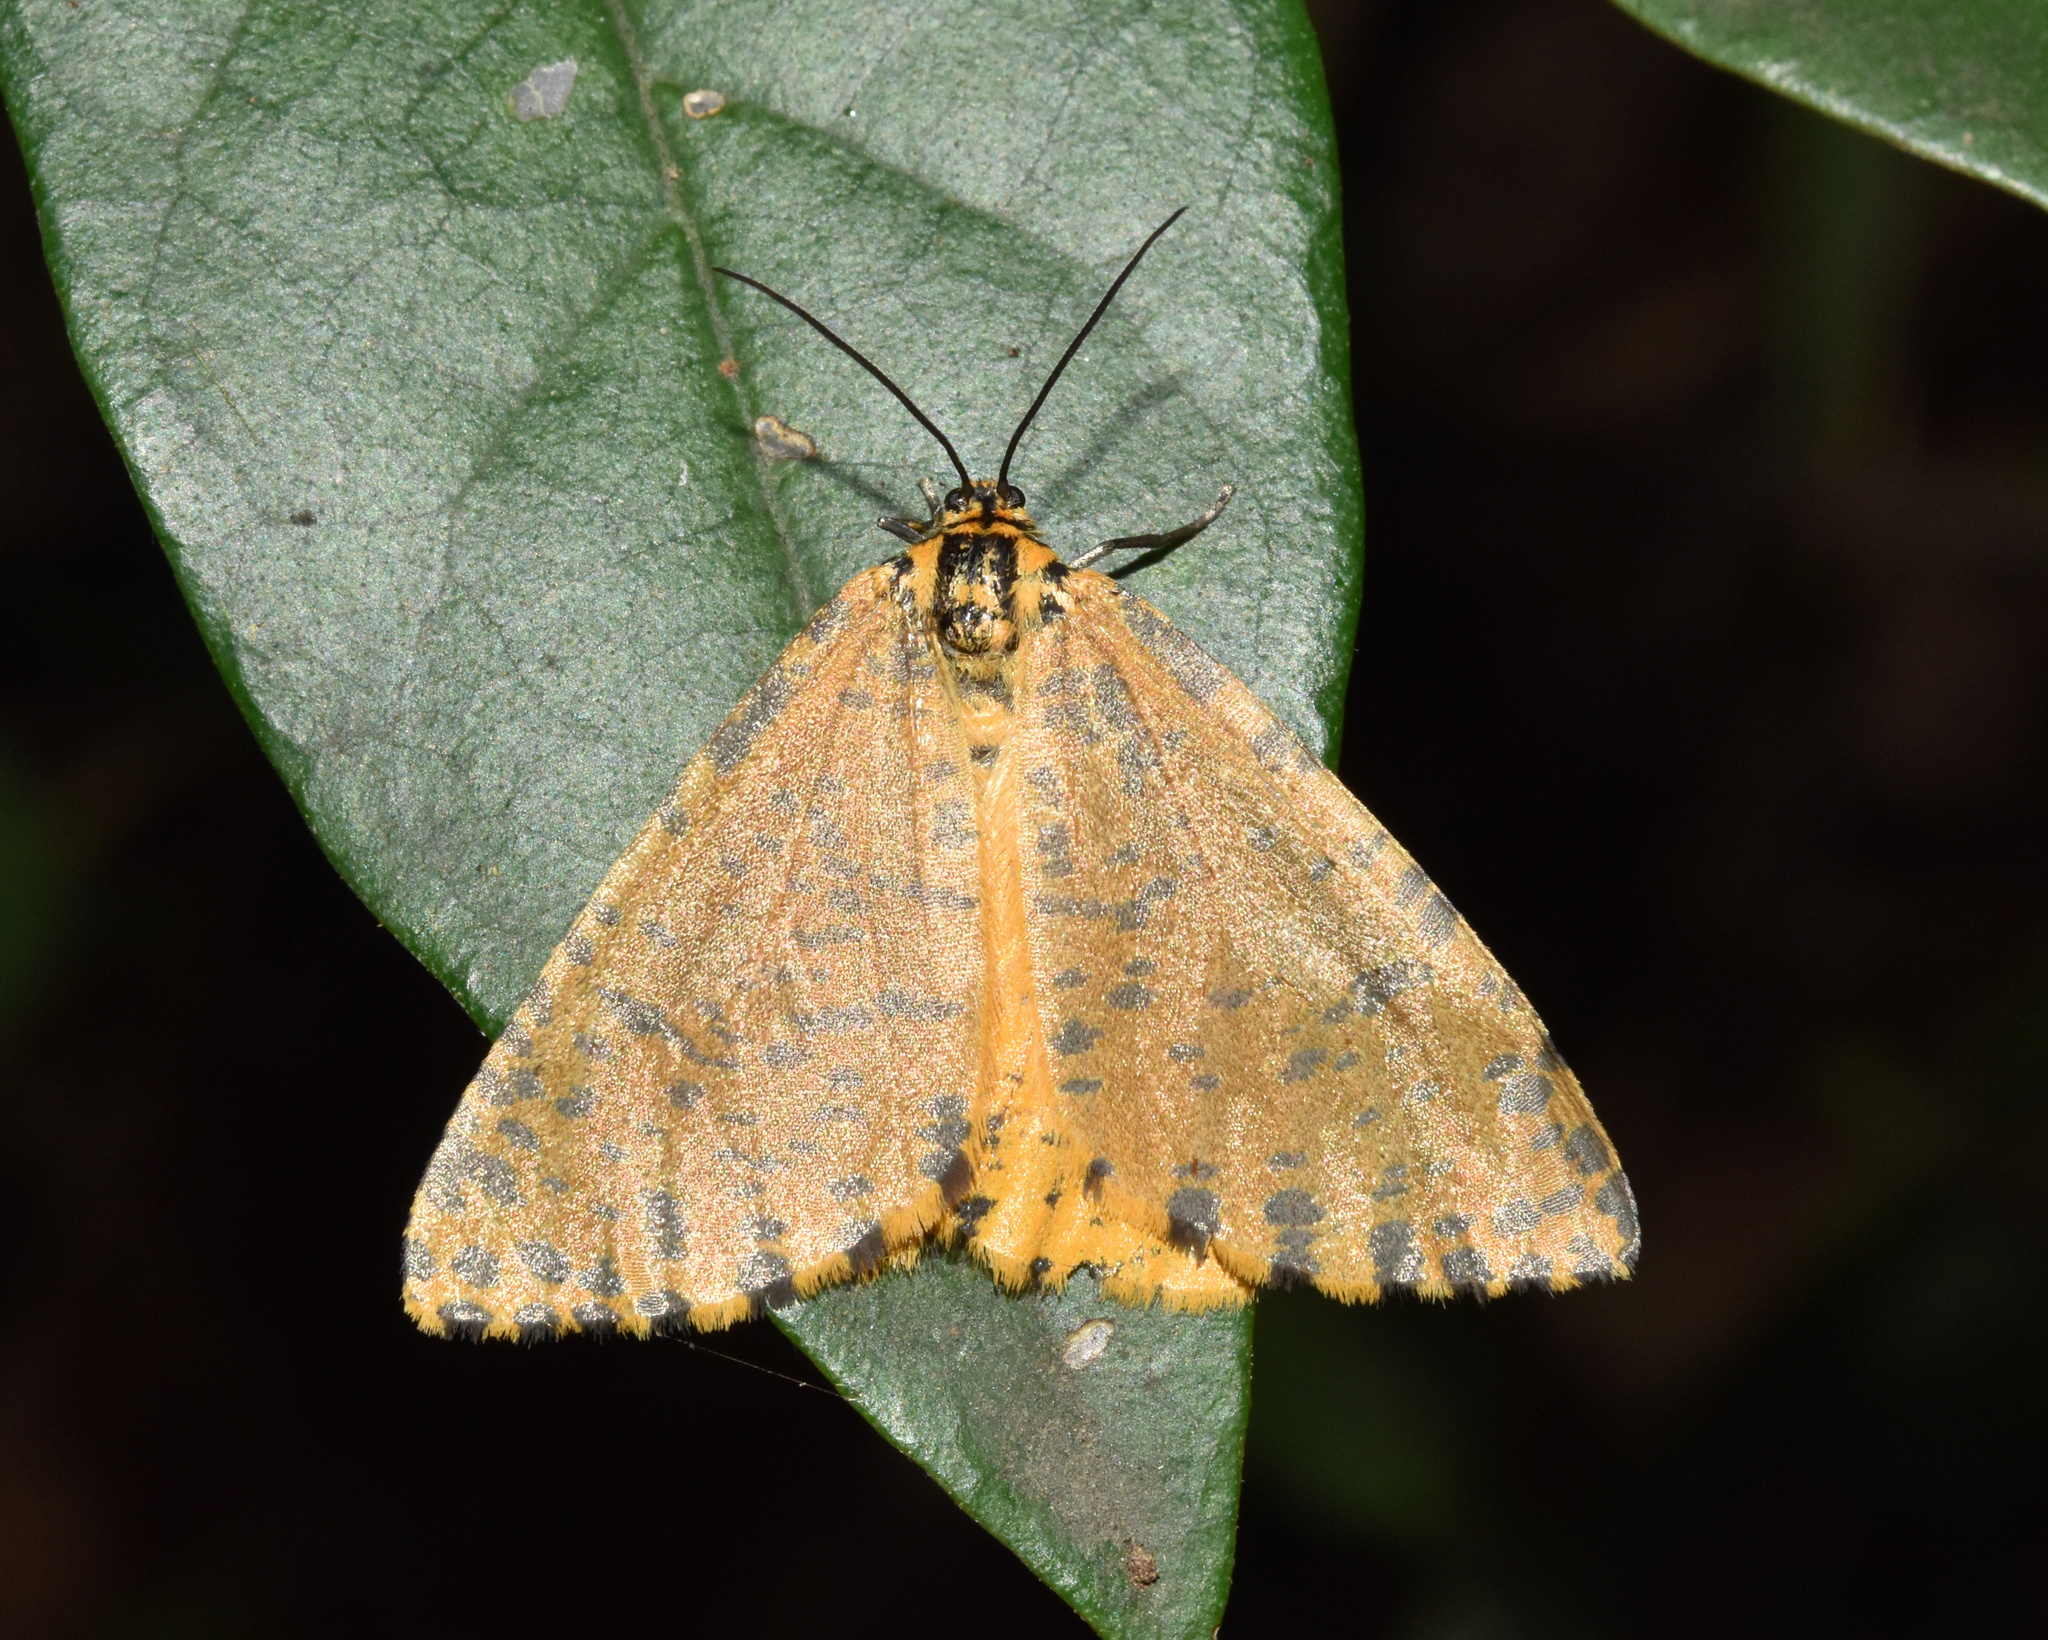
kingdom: Animalia
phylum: Arthropoda
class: Insecta
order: Lepidoptera
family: Geometridae
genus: Zerenopsis
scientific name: Zerenopsis geometrina
